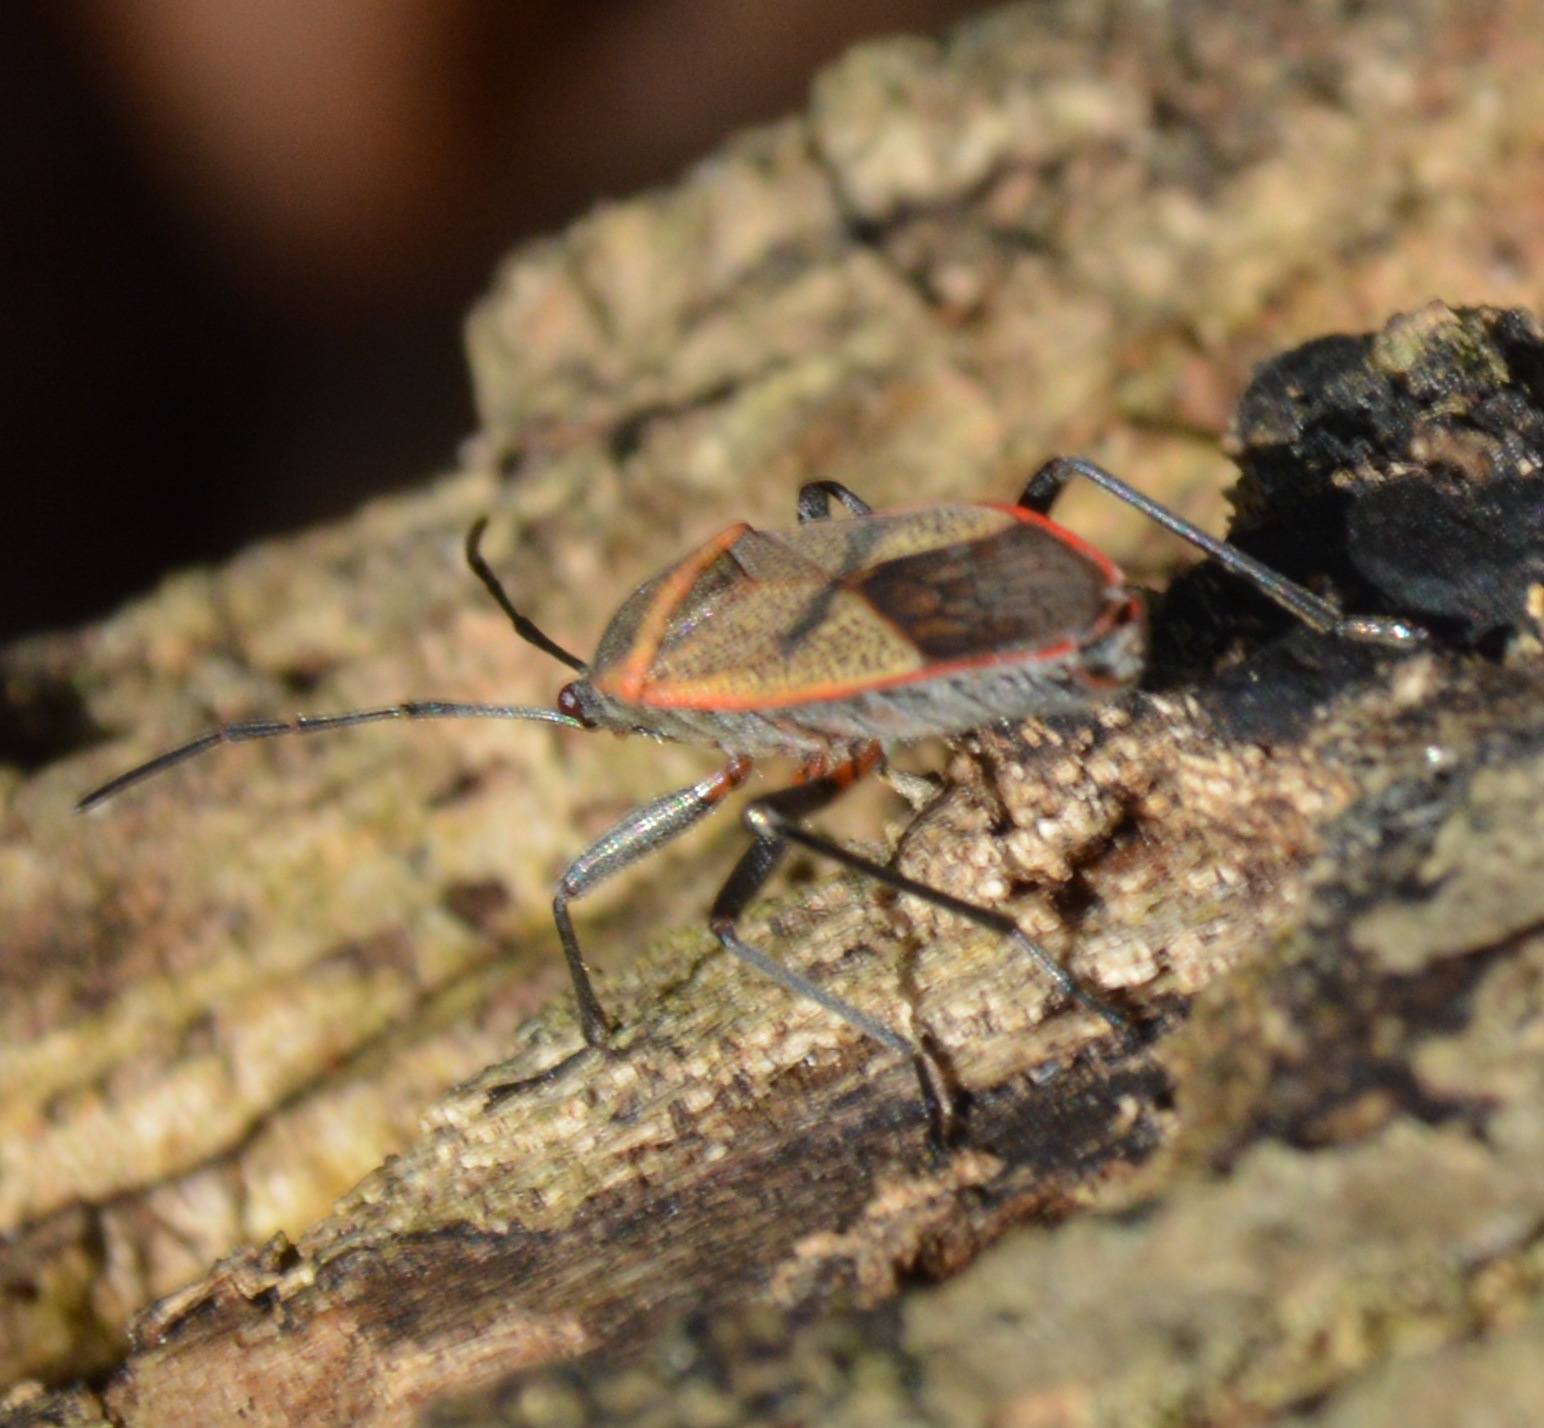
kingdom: Animalia
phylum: Arthropoda
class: Insecta
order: Hemiptera
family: Largidae
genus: Largus
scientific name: Largus maculatus
